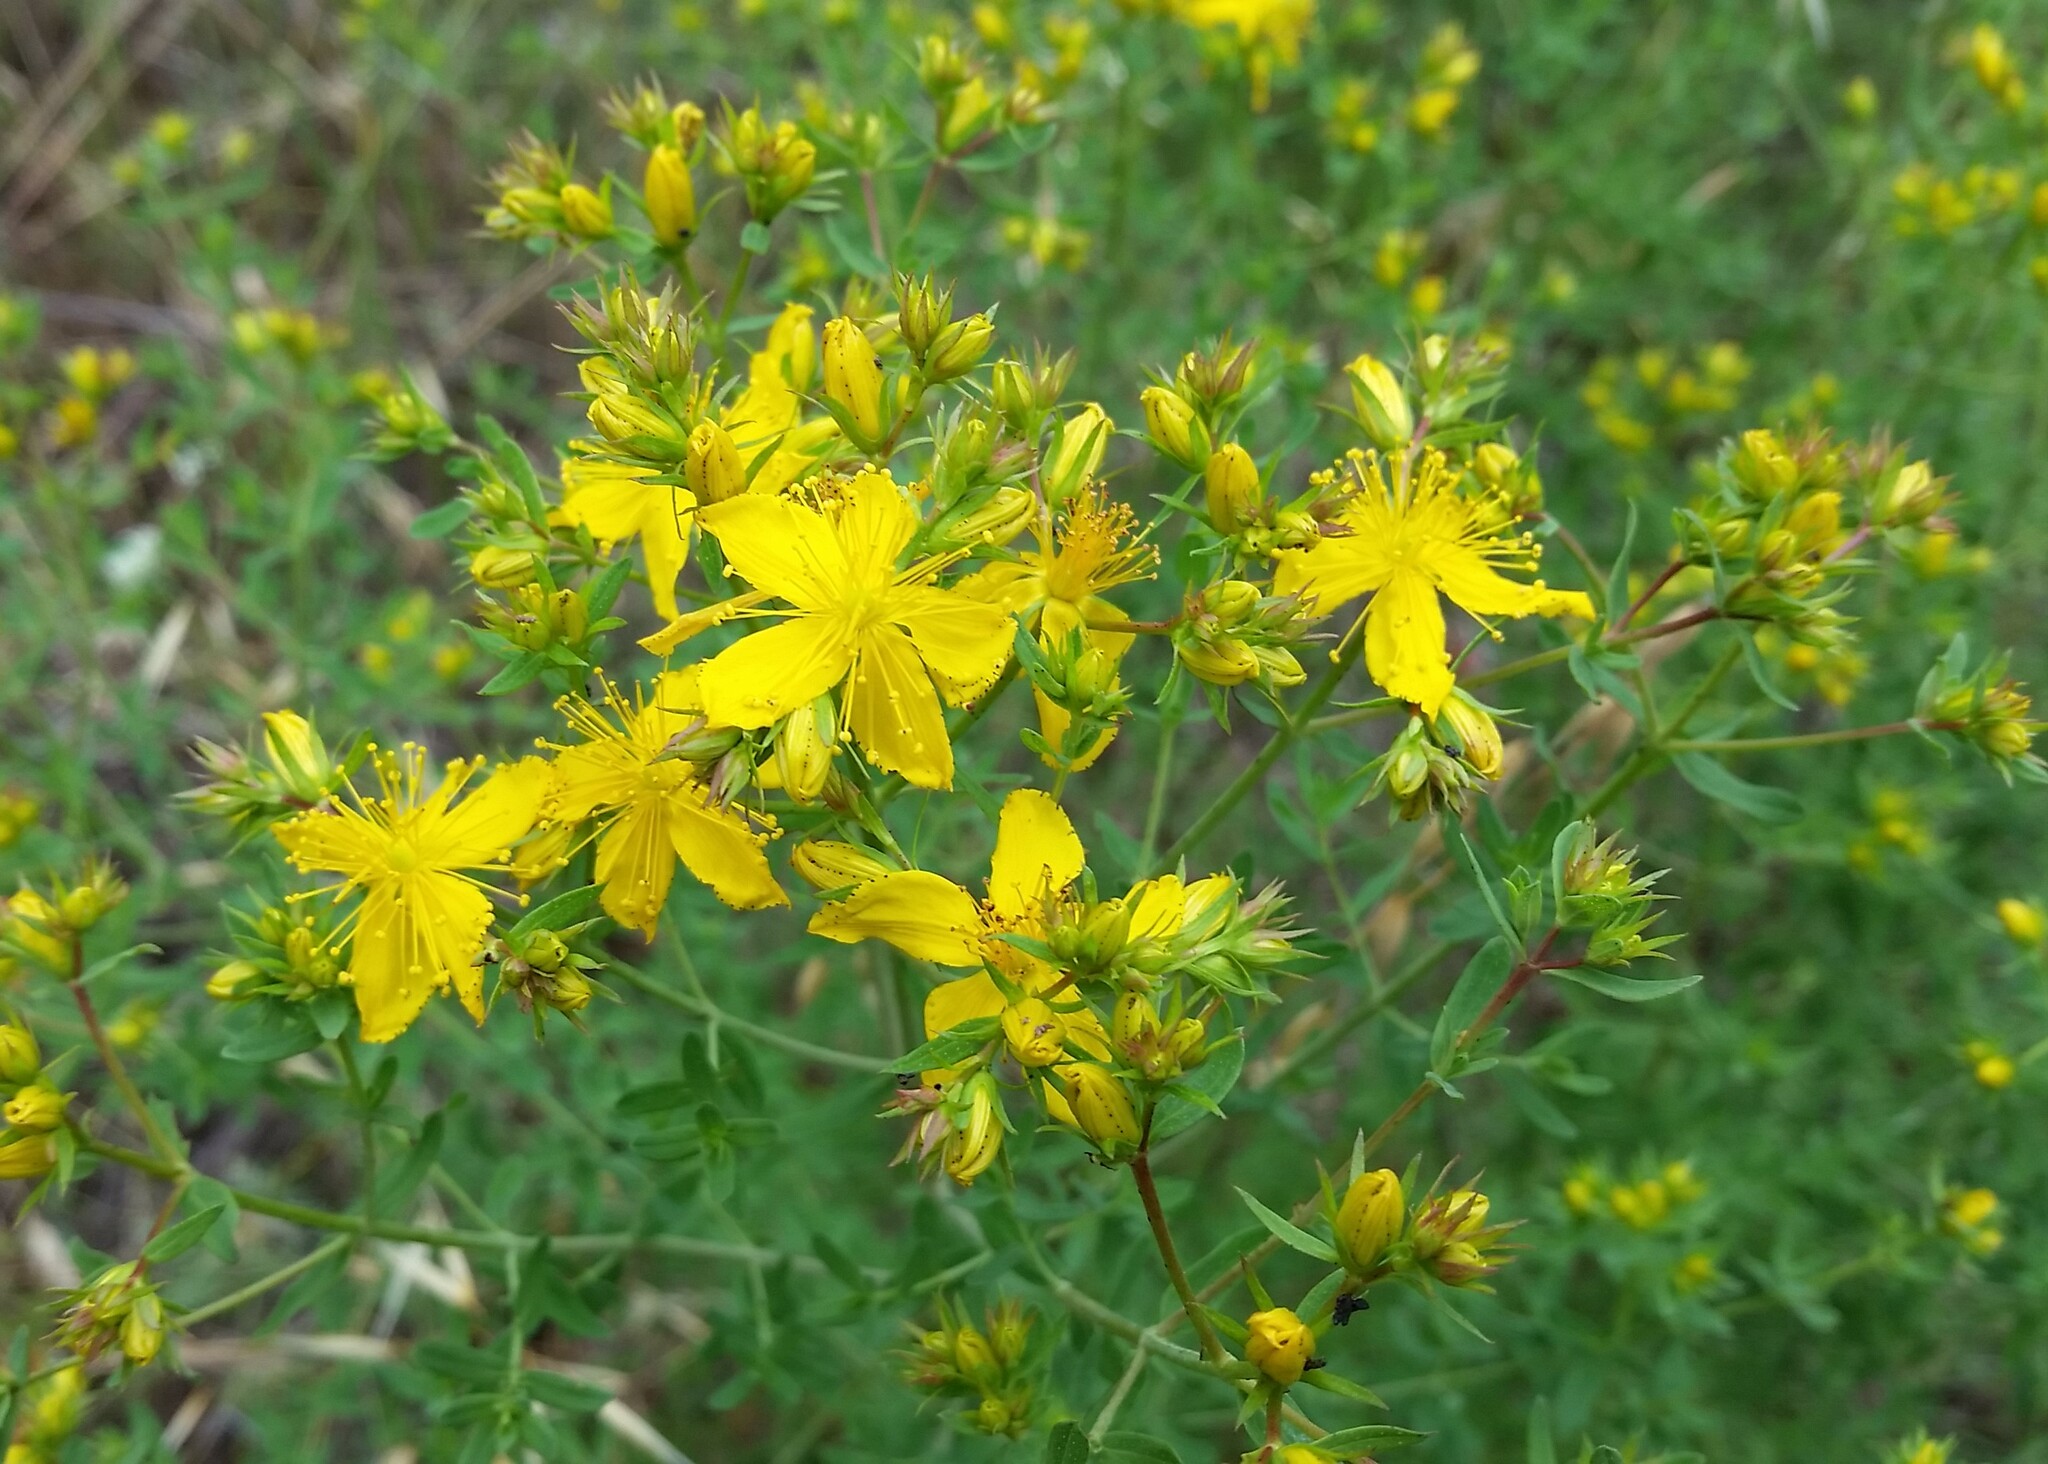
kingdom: Plantae
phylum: Tracheophyta
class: Magnoliopsida
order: Malpighiales
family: Hypericaceae
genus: Hypericum
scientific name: Hypericum perforatum
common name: Common st. johnswort
